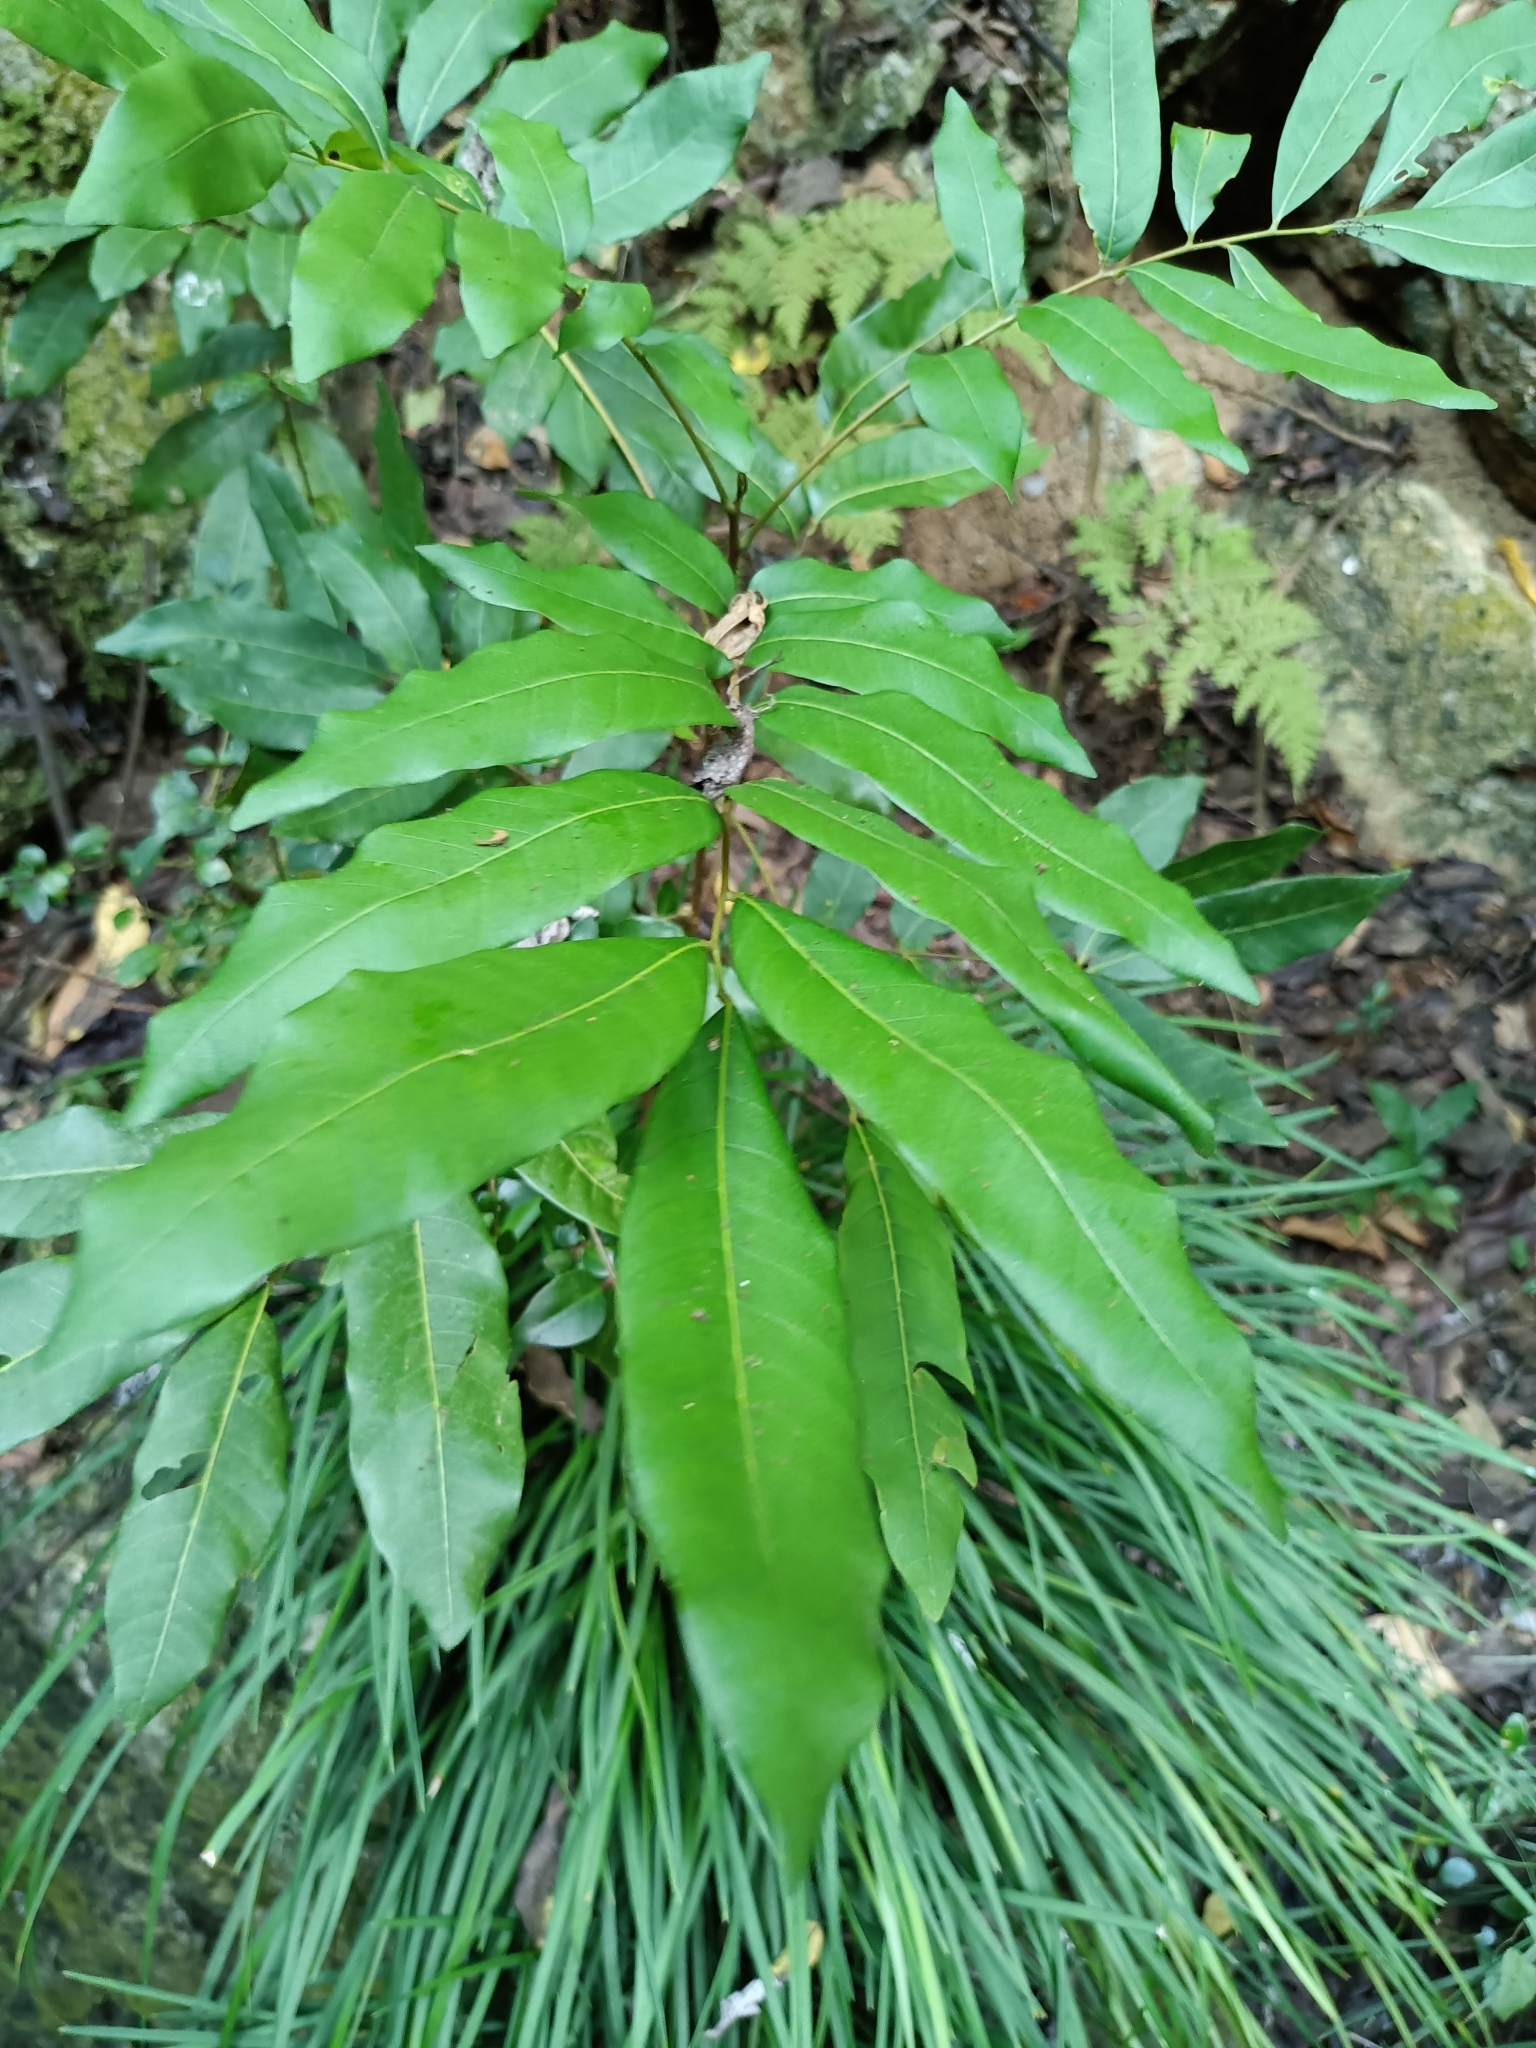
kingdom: Plantae
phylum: Tracheophyta
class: Magnoliopsida
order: Sapindales
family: Sapindaceae
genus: Dimocarpus
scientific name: Dimocarpus longan
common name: Longan
